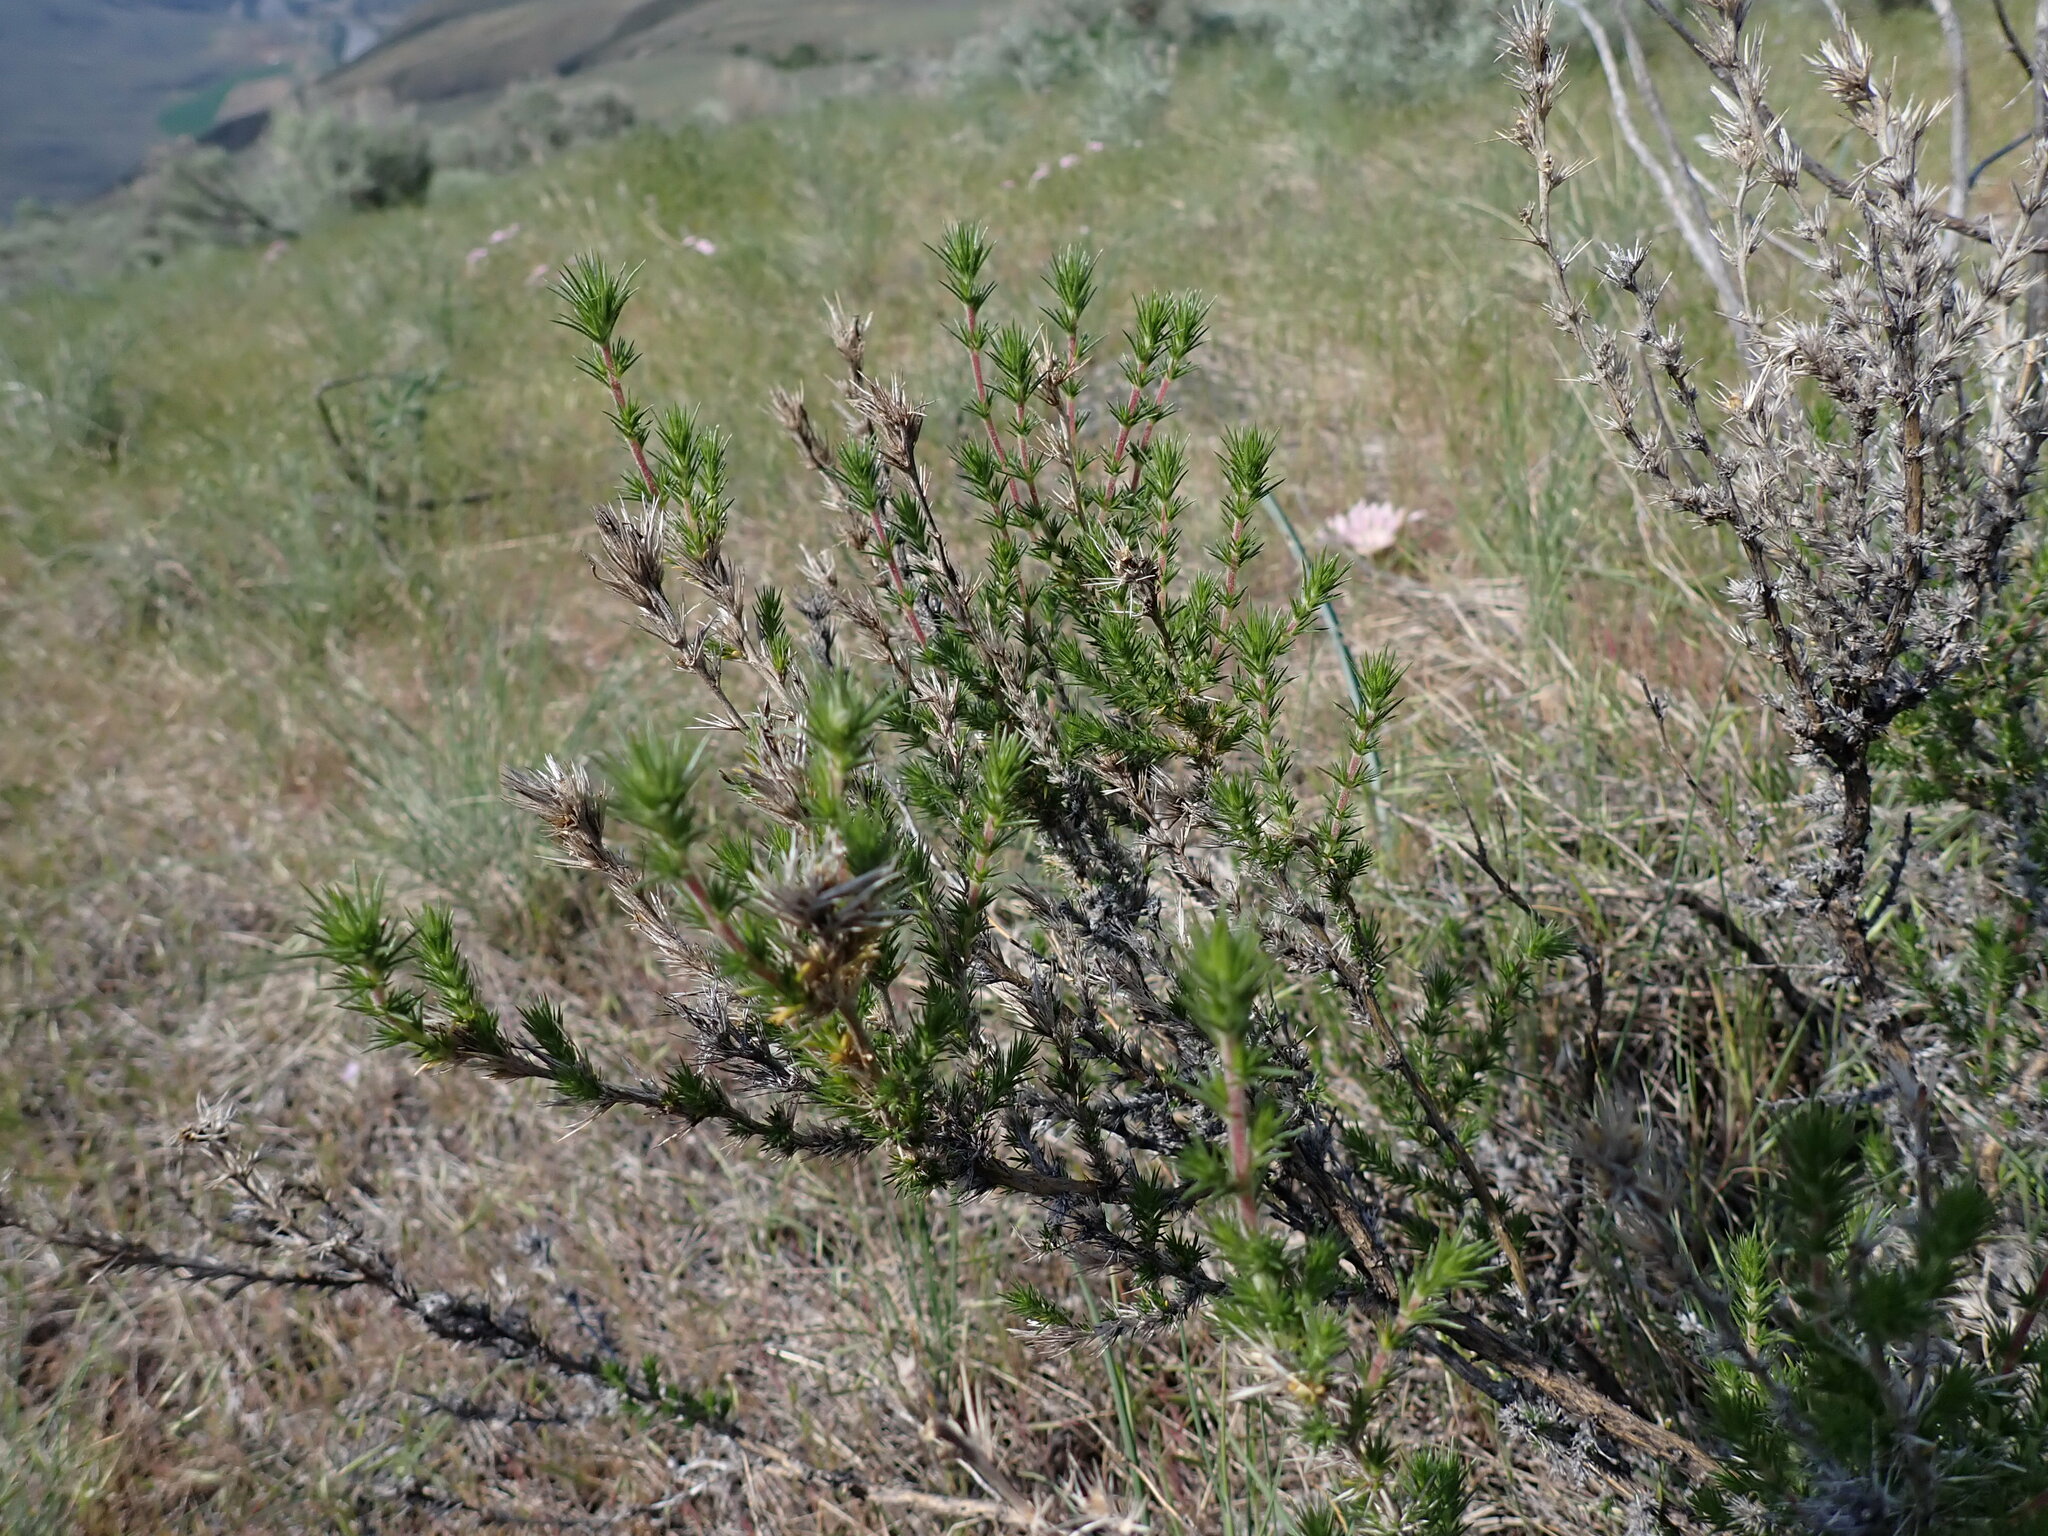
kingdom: Plantae
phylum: Tracheophyta
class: Magnoliopsida
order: Ericales
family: Polemoniaceae
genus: Linanthus
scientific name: Linanthus pungens
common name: Granite prickly phlox
